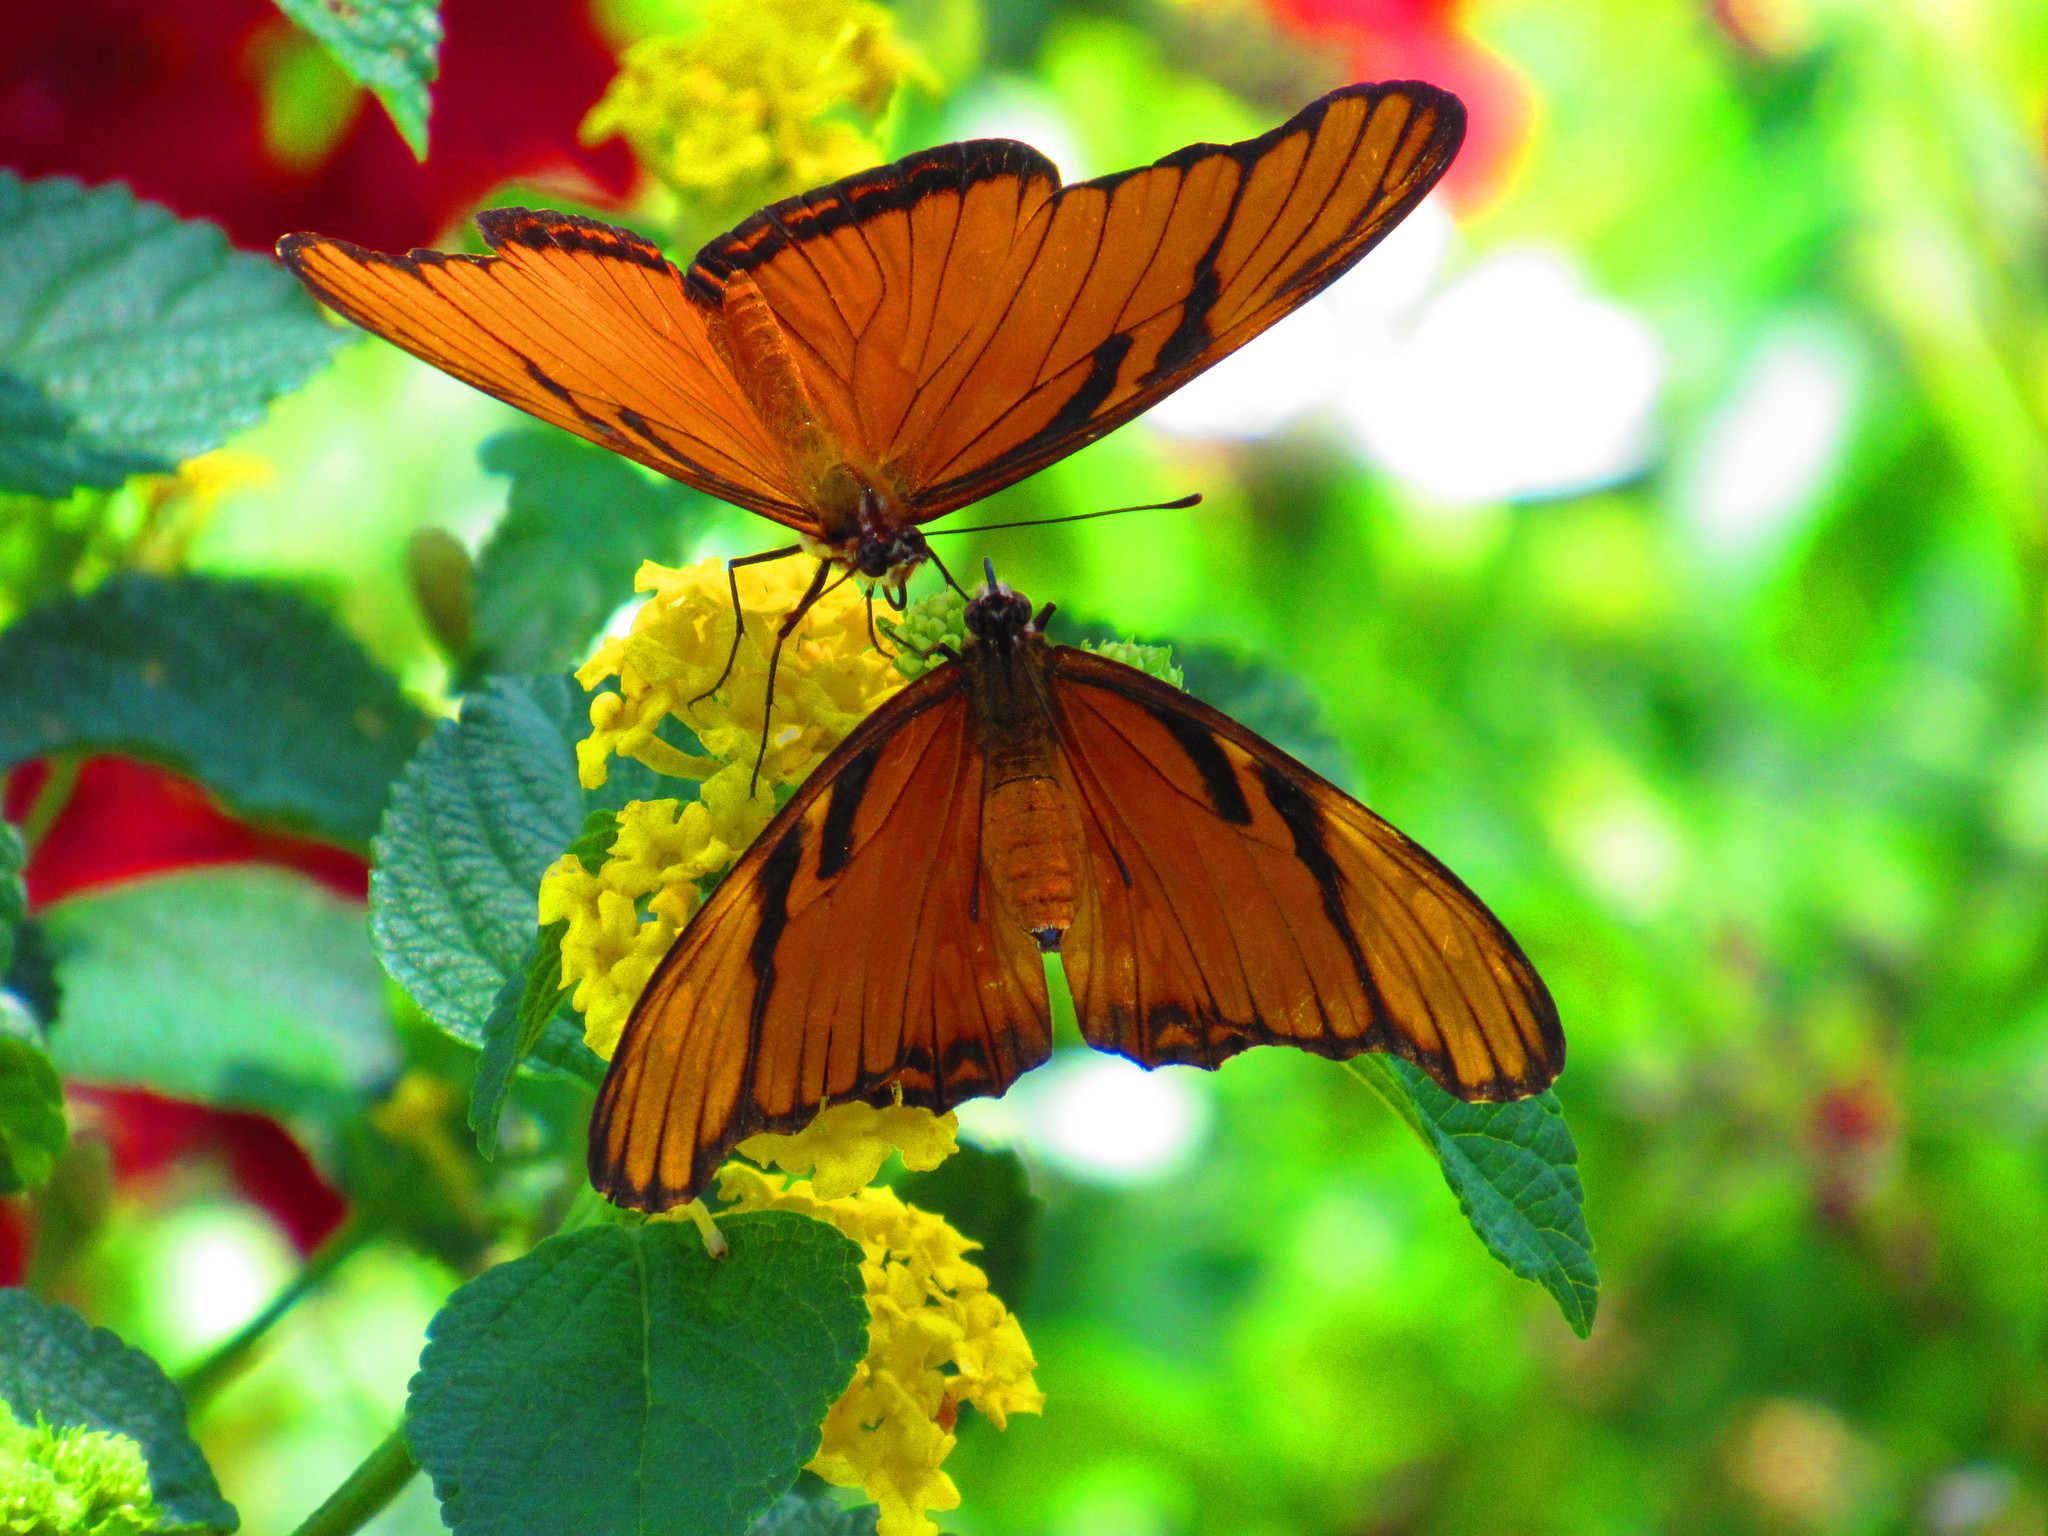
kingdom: Animalia
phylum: Arthropoda
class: Insecta
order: Lepidoptera
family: Nymphalidae
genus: Dione
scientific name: Dione juno
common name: Juno silverspot
